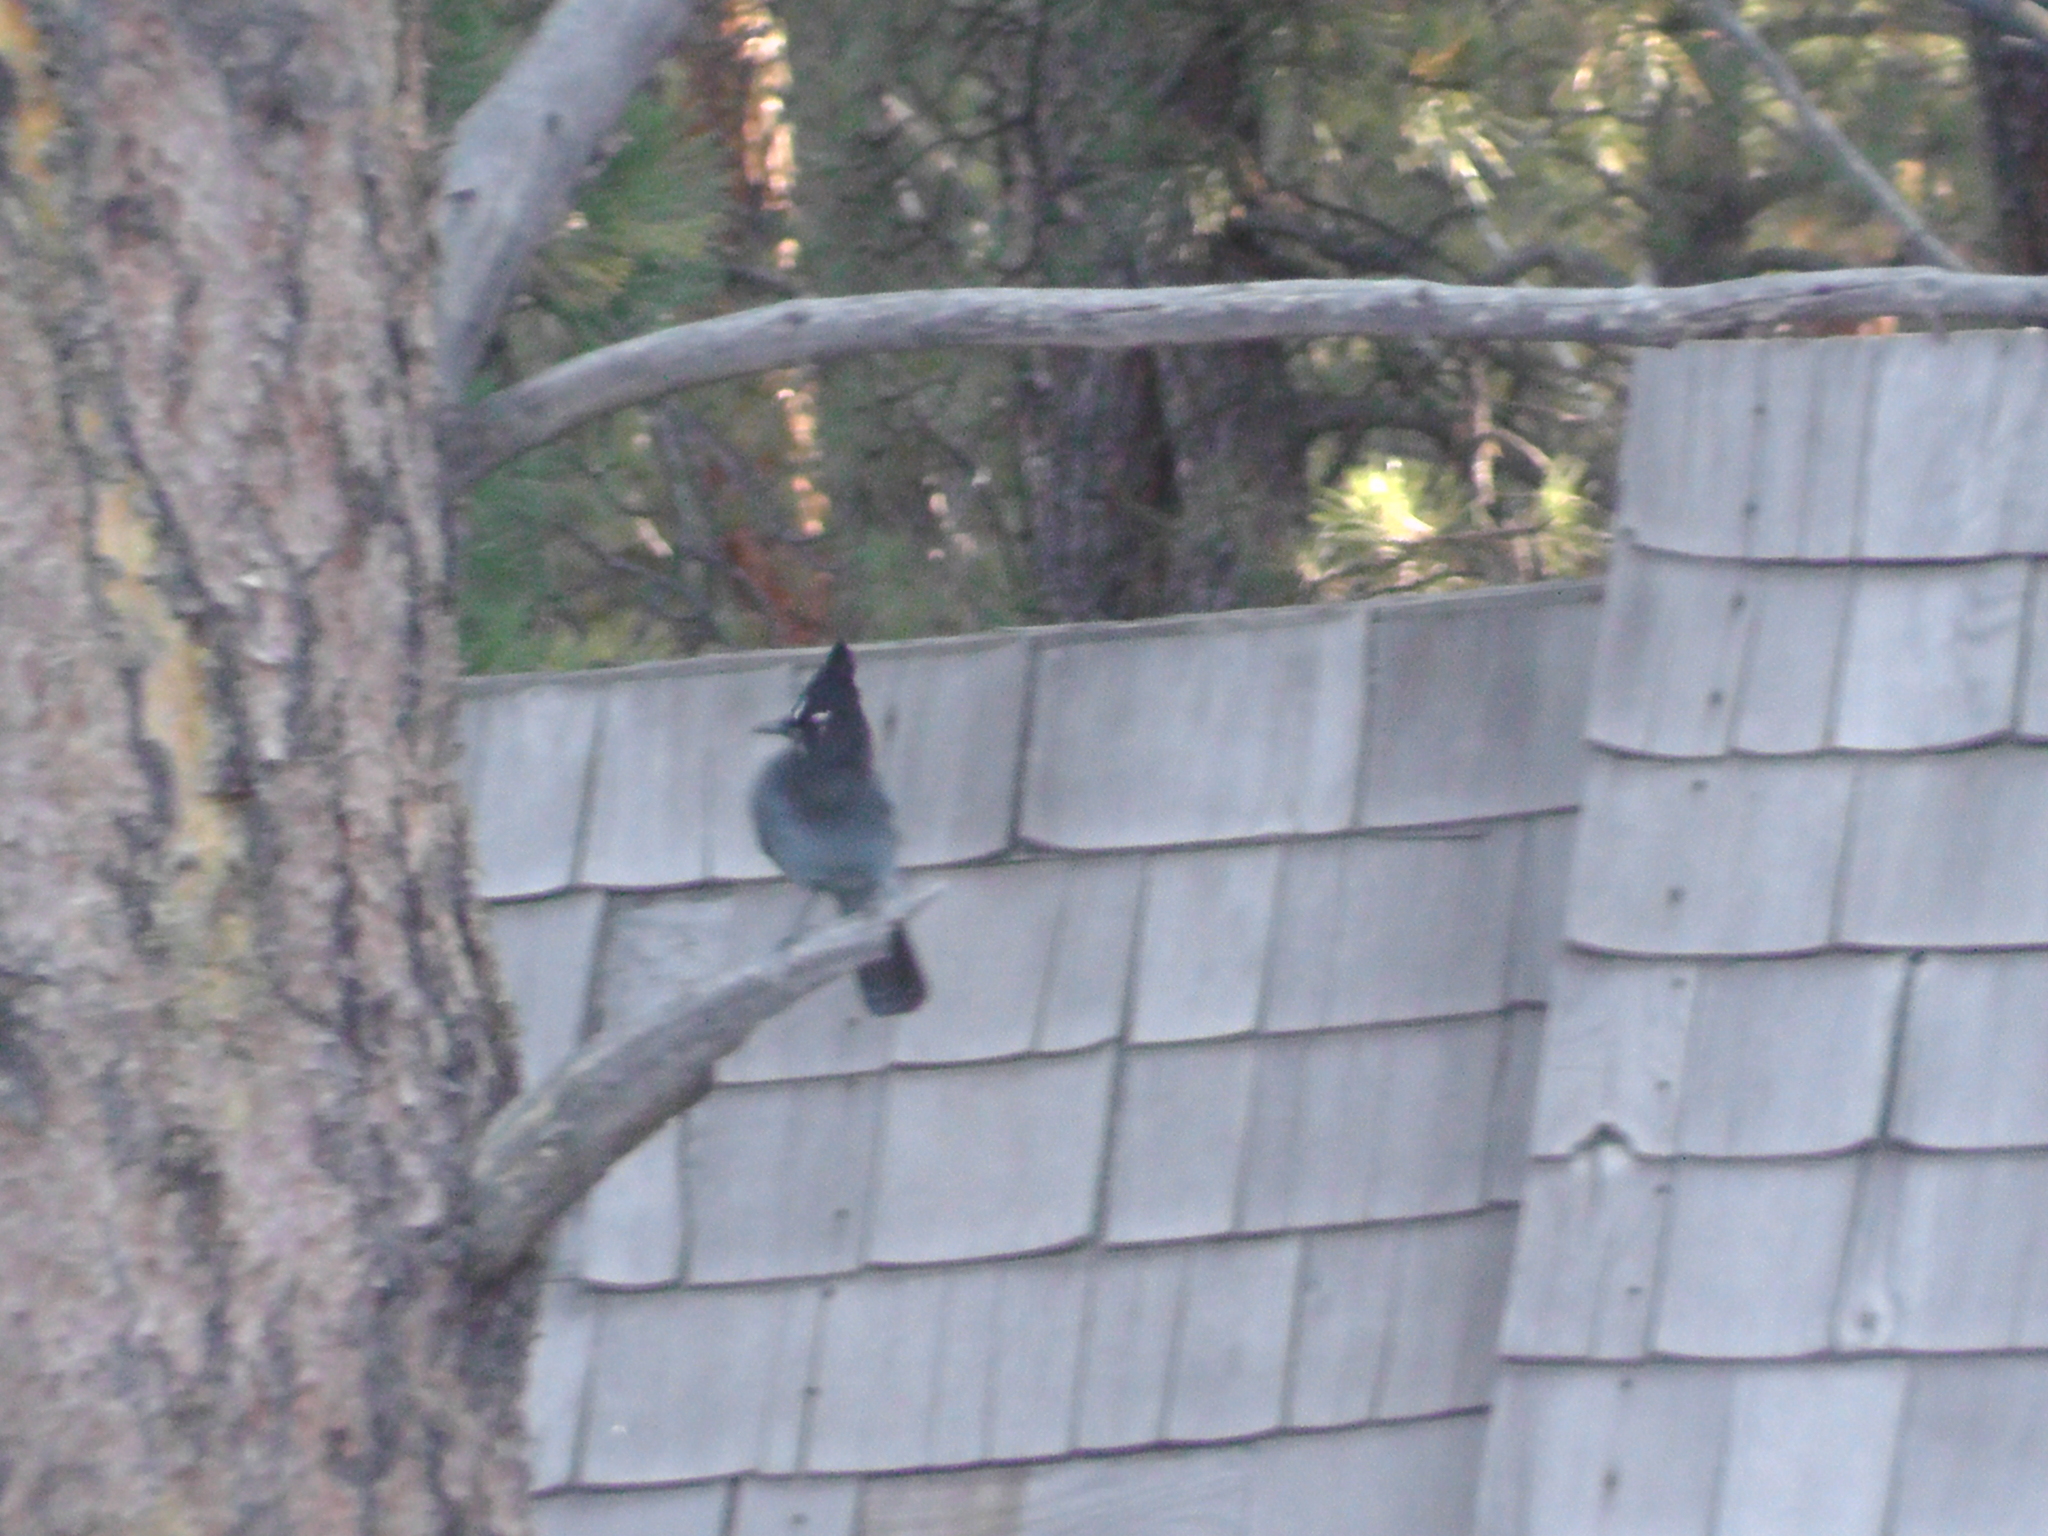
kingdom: Animalia
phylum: Chordata
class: Aves
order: Passeriformes
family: Corvidae
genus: Cyanocitta
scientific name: Cyanocitta stelleri
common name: Steller's jay
